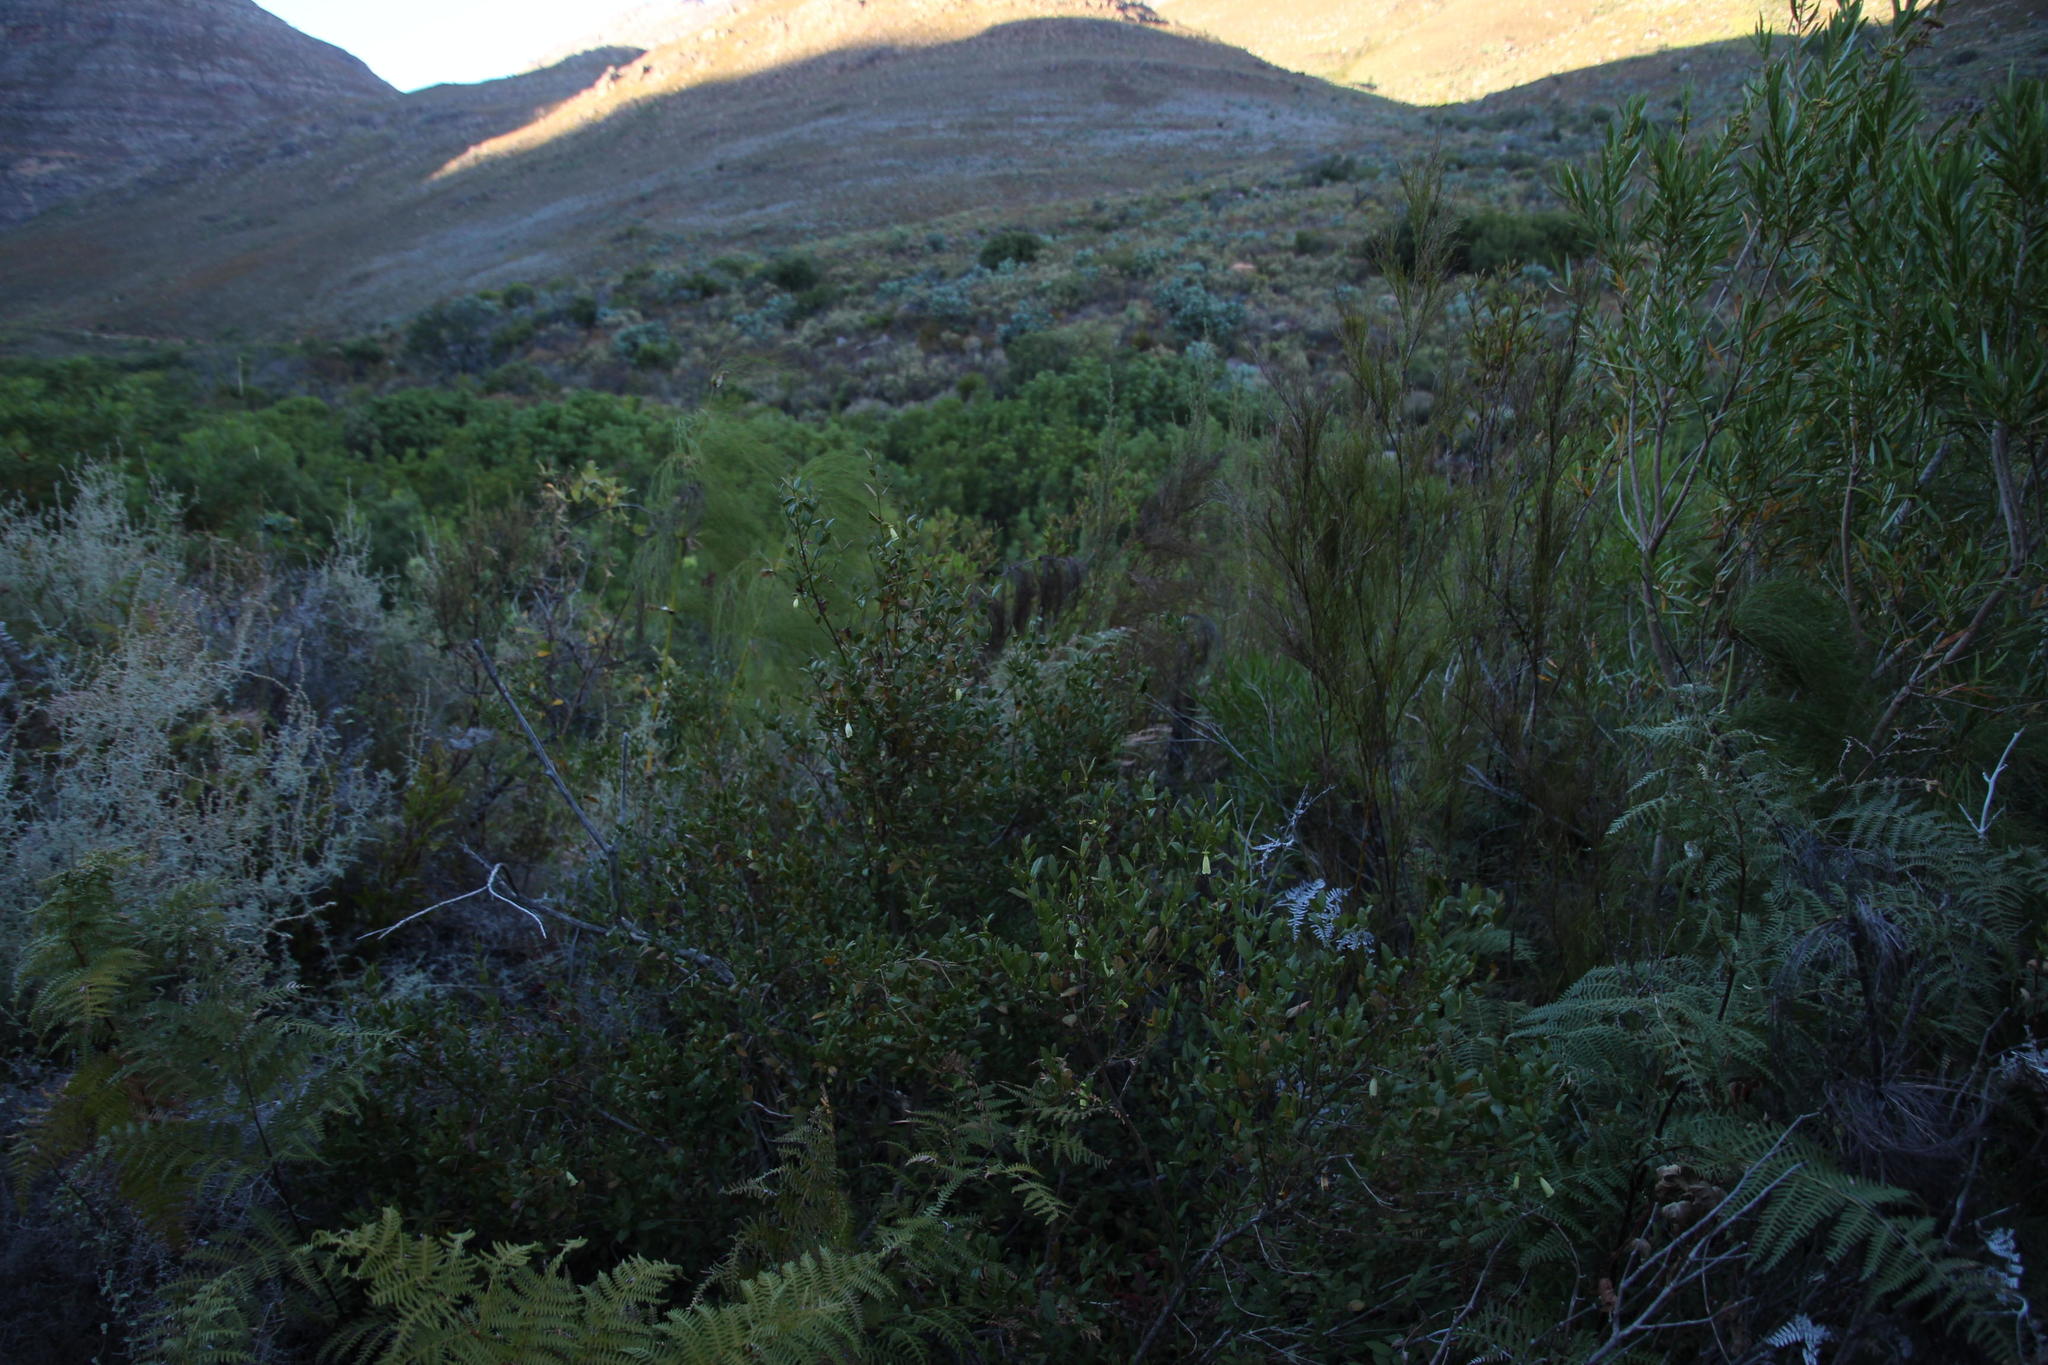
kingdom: Plantae
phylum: Tracheophyta
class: Magnoliopsida
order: Lamiales
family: Stilbaceae
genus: Halleria
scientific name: Halleria elliptica
